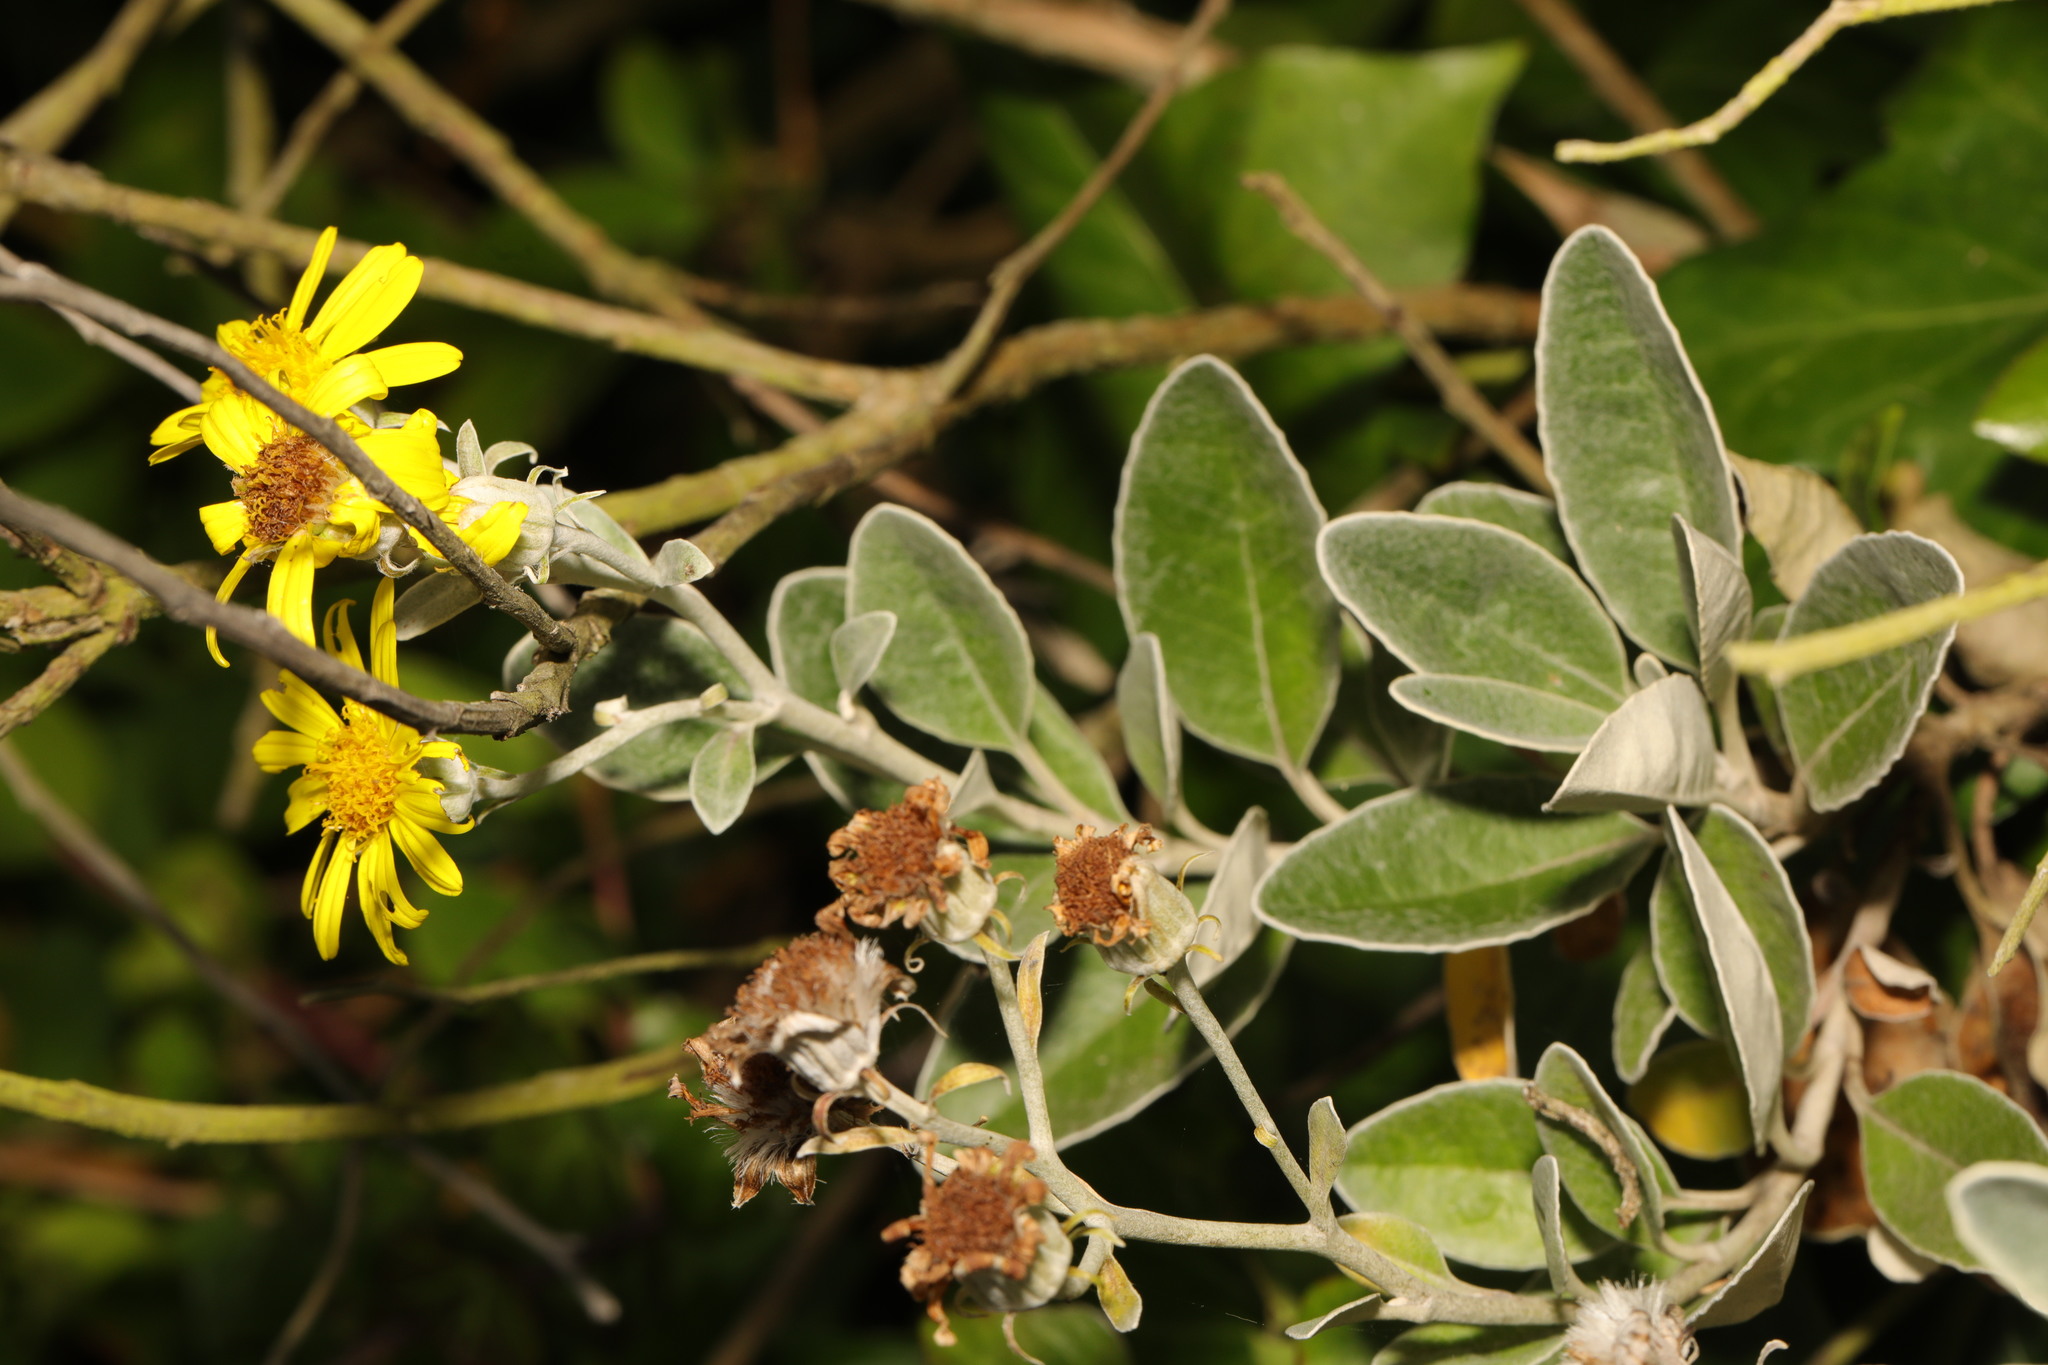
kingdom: Plantae
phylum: Tracheophyta
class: Magnoliopsida
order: Asterales
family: Asteraceae
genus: Brachyglottis
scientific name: Brachyglottis jubar
